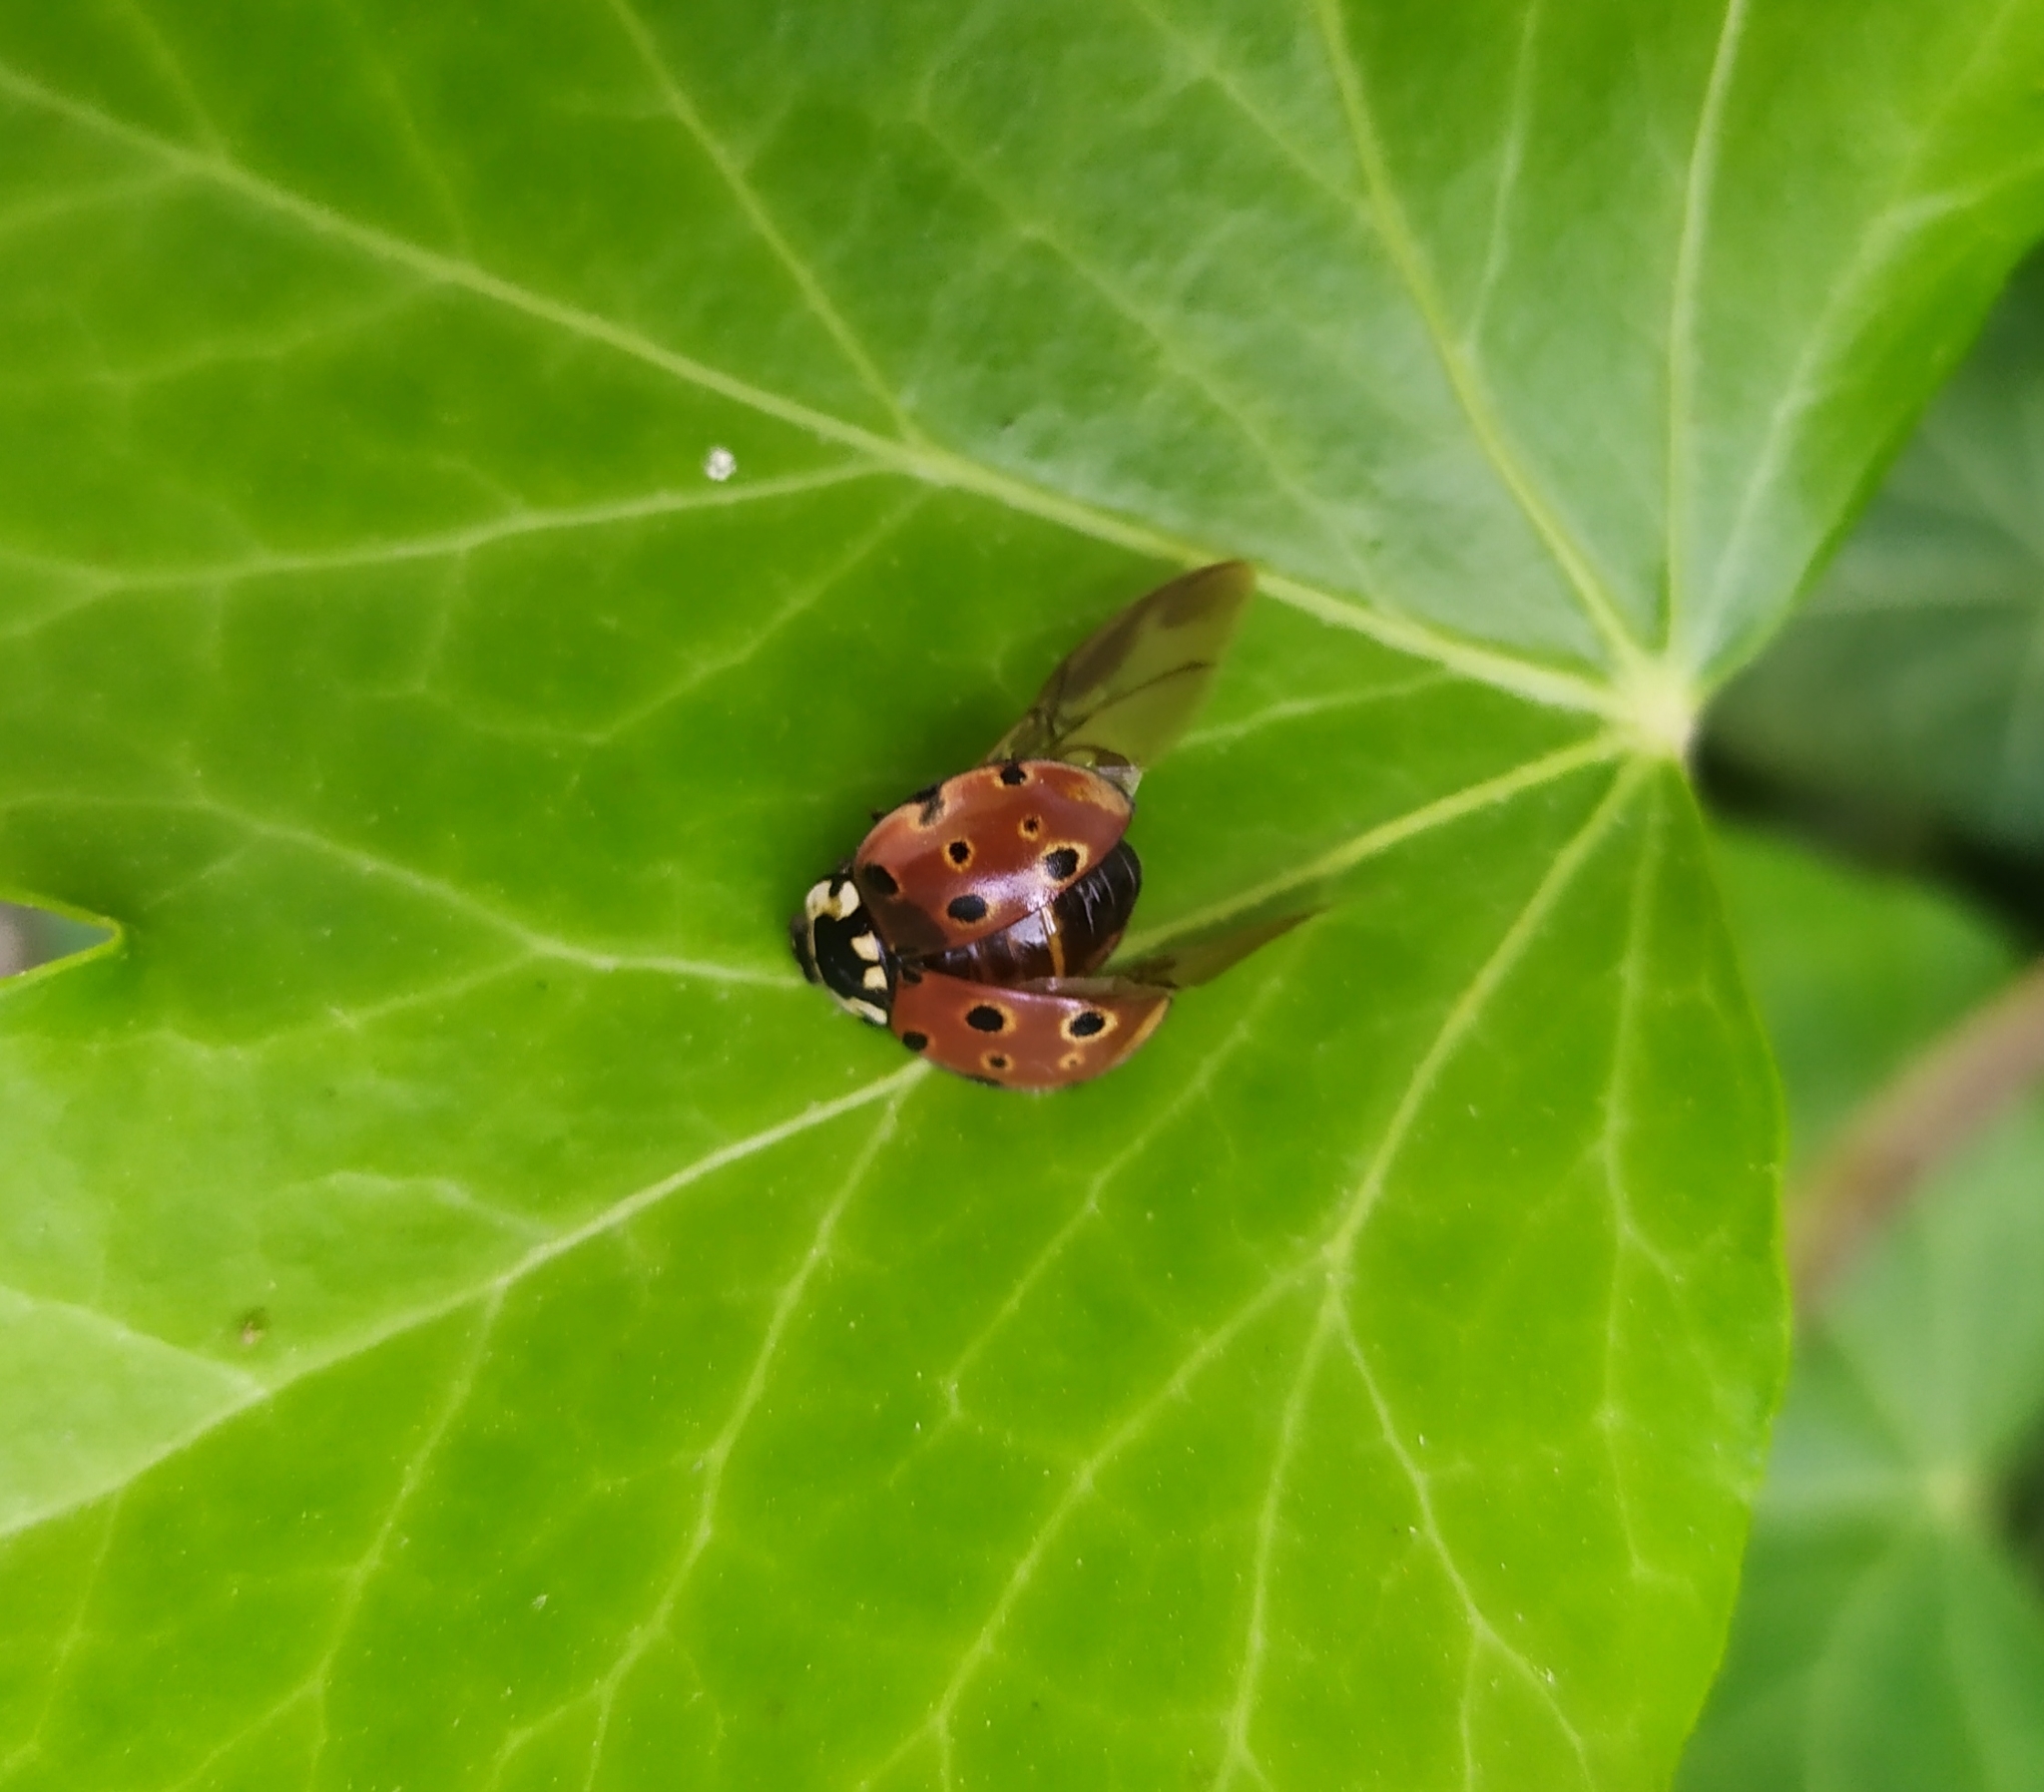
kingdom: Animalia
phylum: Arthropoda
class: Insecta
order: Coleoptera
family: Coccinellidae
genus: Anatis
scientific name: Anatis ocellata
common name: Eyed ladybird
